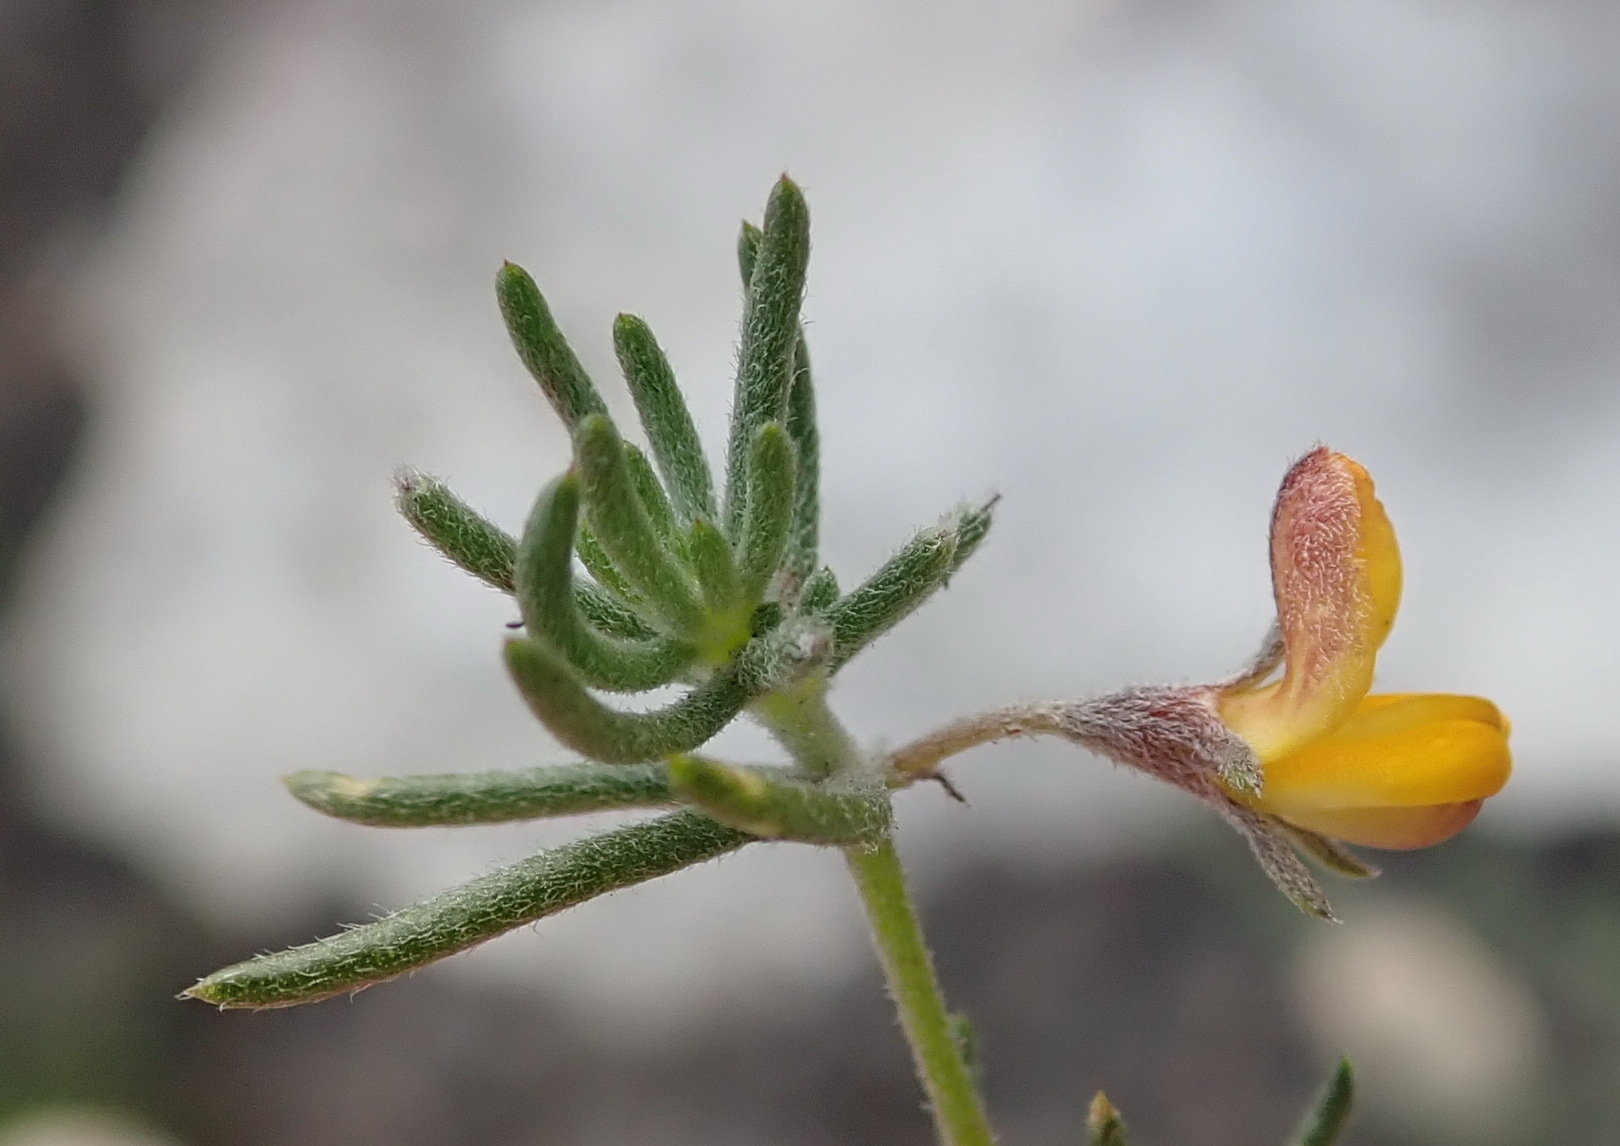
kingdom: Plantae
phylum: Tracheophyta
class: Magnoliopsida
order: Fabales
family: Fabaceae
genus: Aspalathus
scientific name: Aspalathus digitifolia
